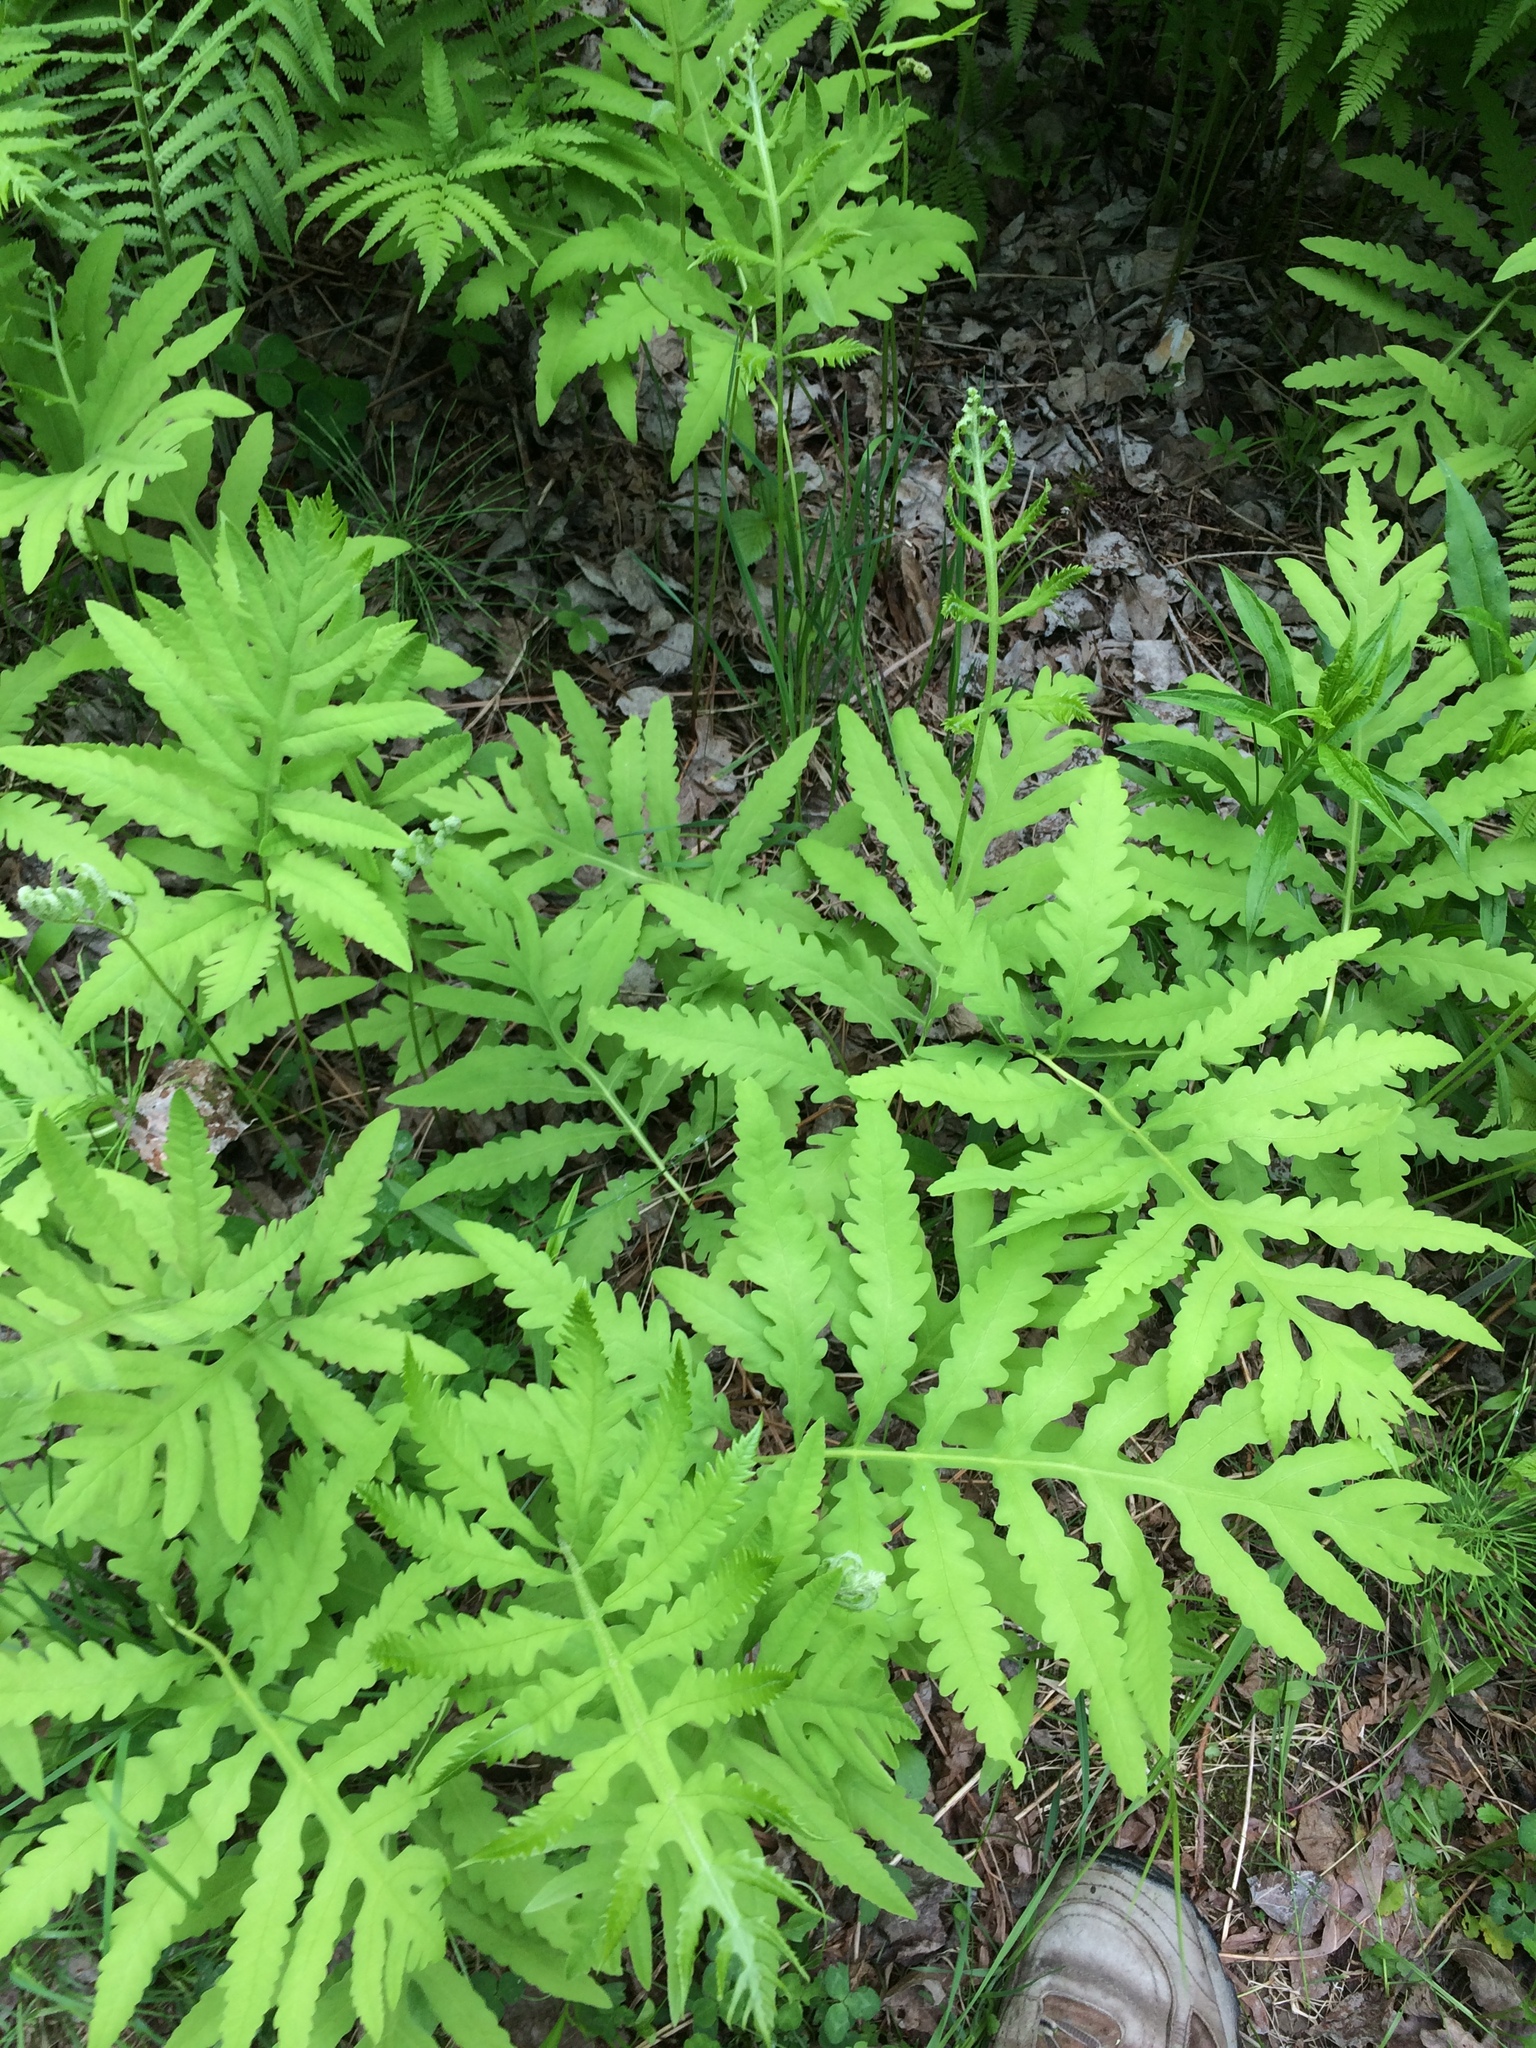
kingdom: Plantae
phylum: Tracheophyta
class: Polypodiopsida
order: Polypodiales
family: Onocleaceae
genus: Onoclea
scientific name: Onoclea sensibilis
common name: Sensitive fern
